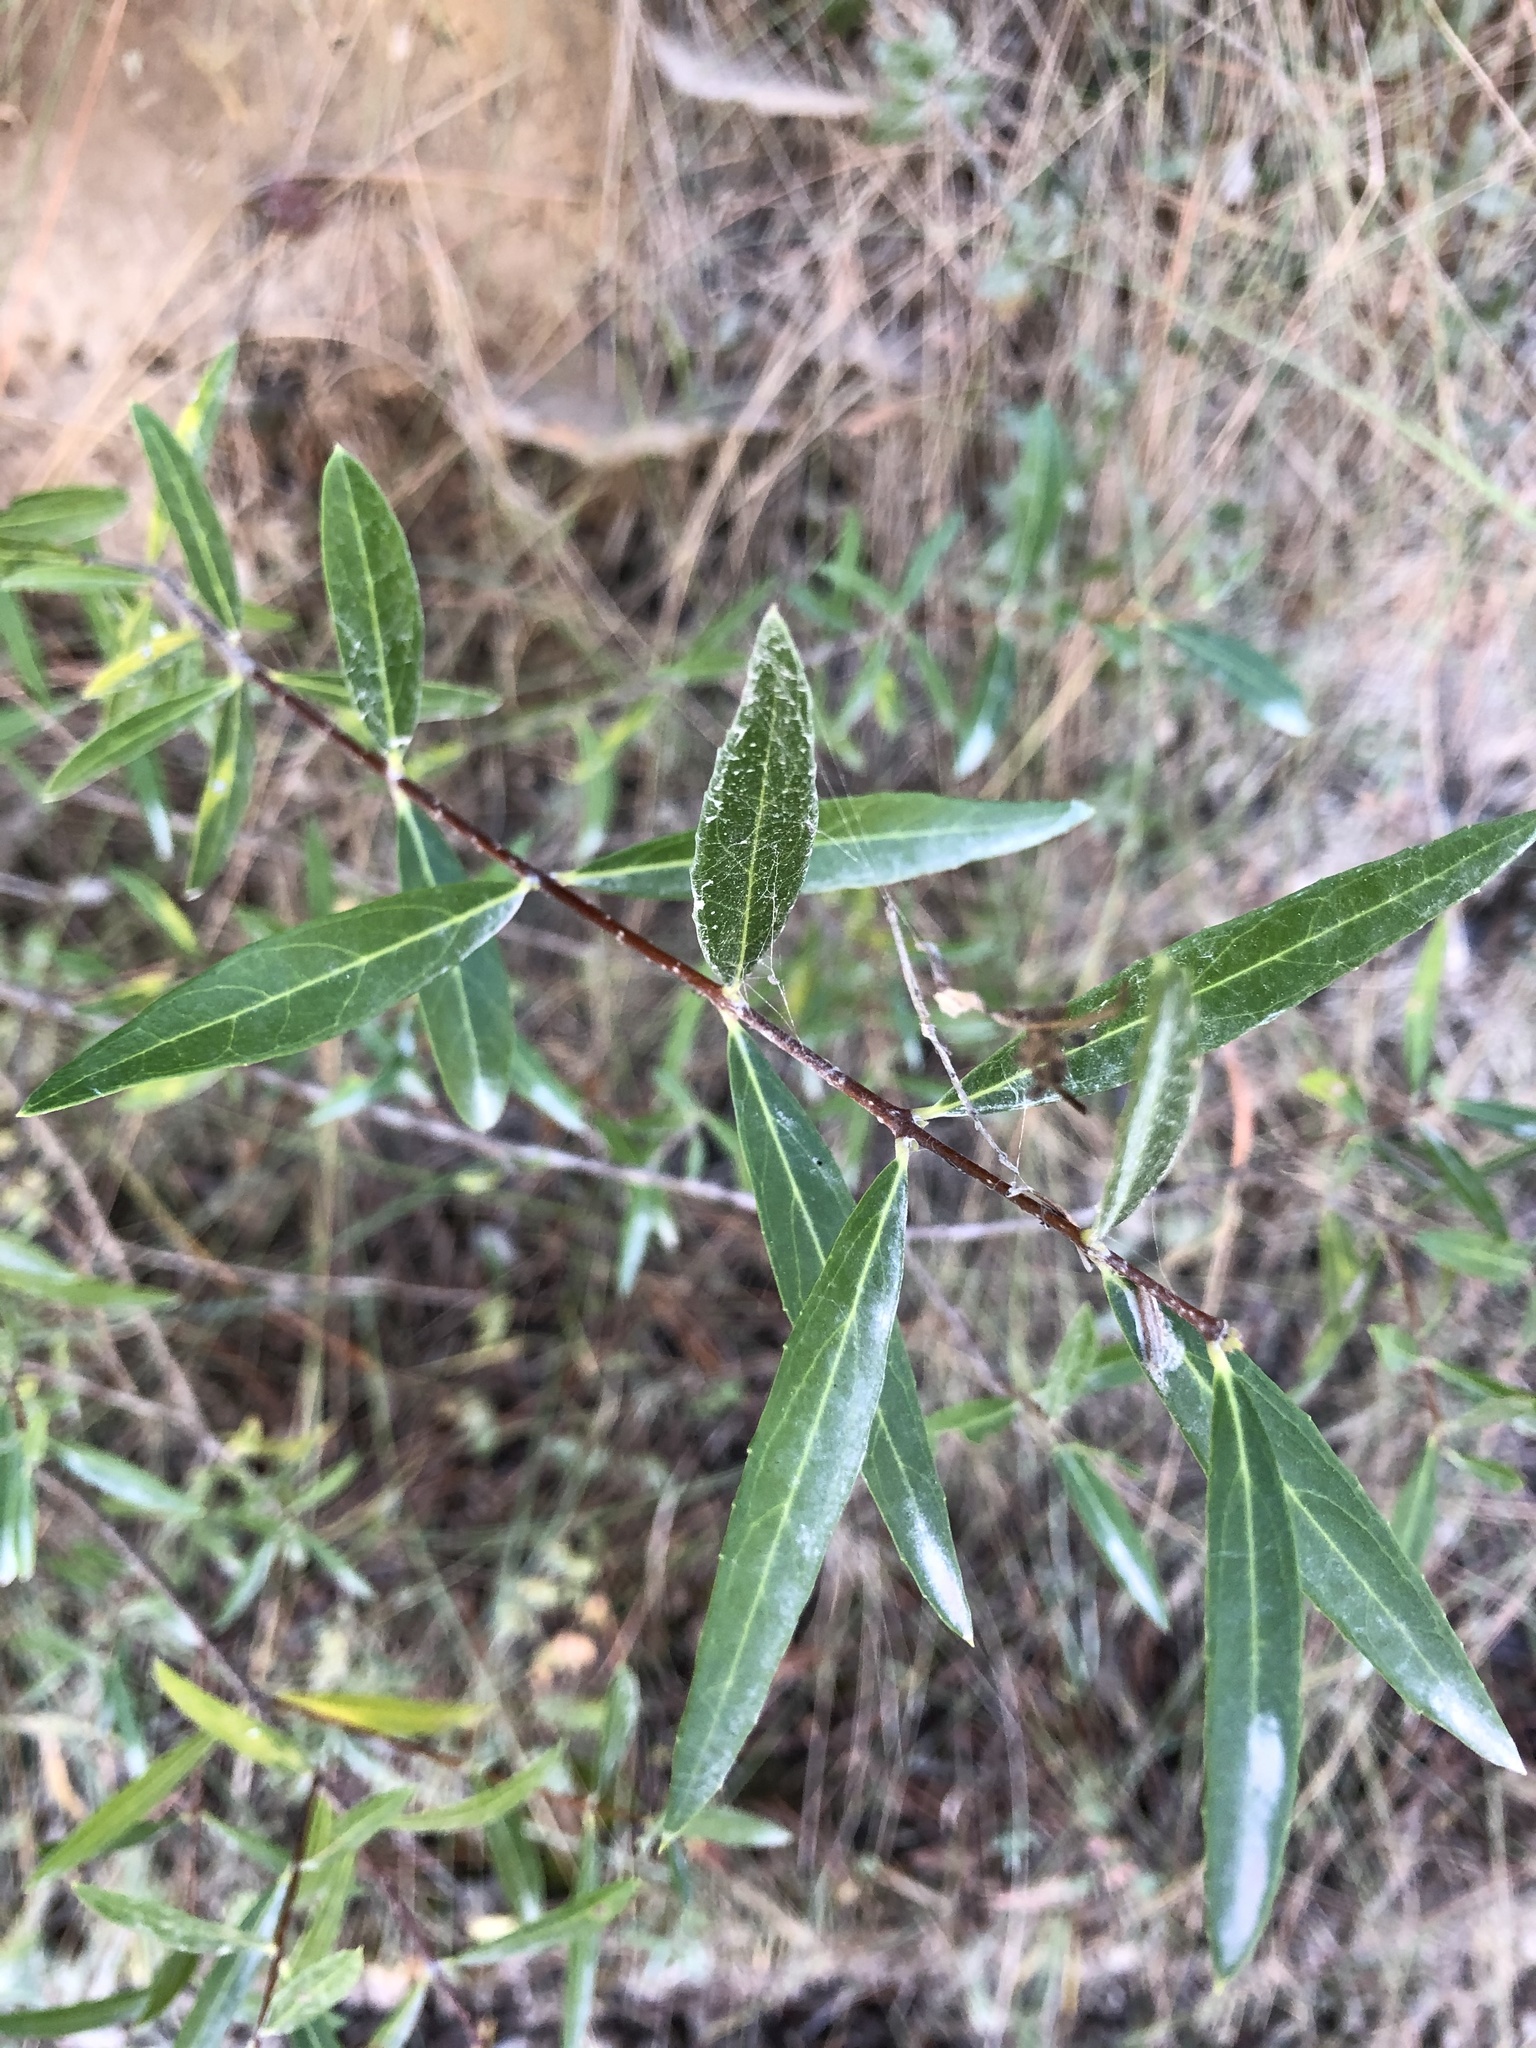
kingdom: Plantae
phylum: Tracheophyta
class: Magnoliopsida
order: Lamiales
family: Oleaceae
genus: Phillyrea
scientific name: Phillyrea angustifolia
